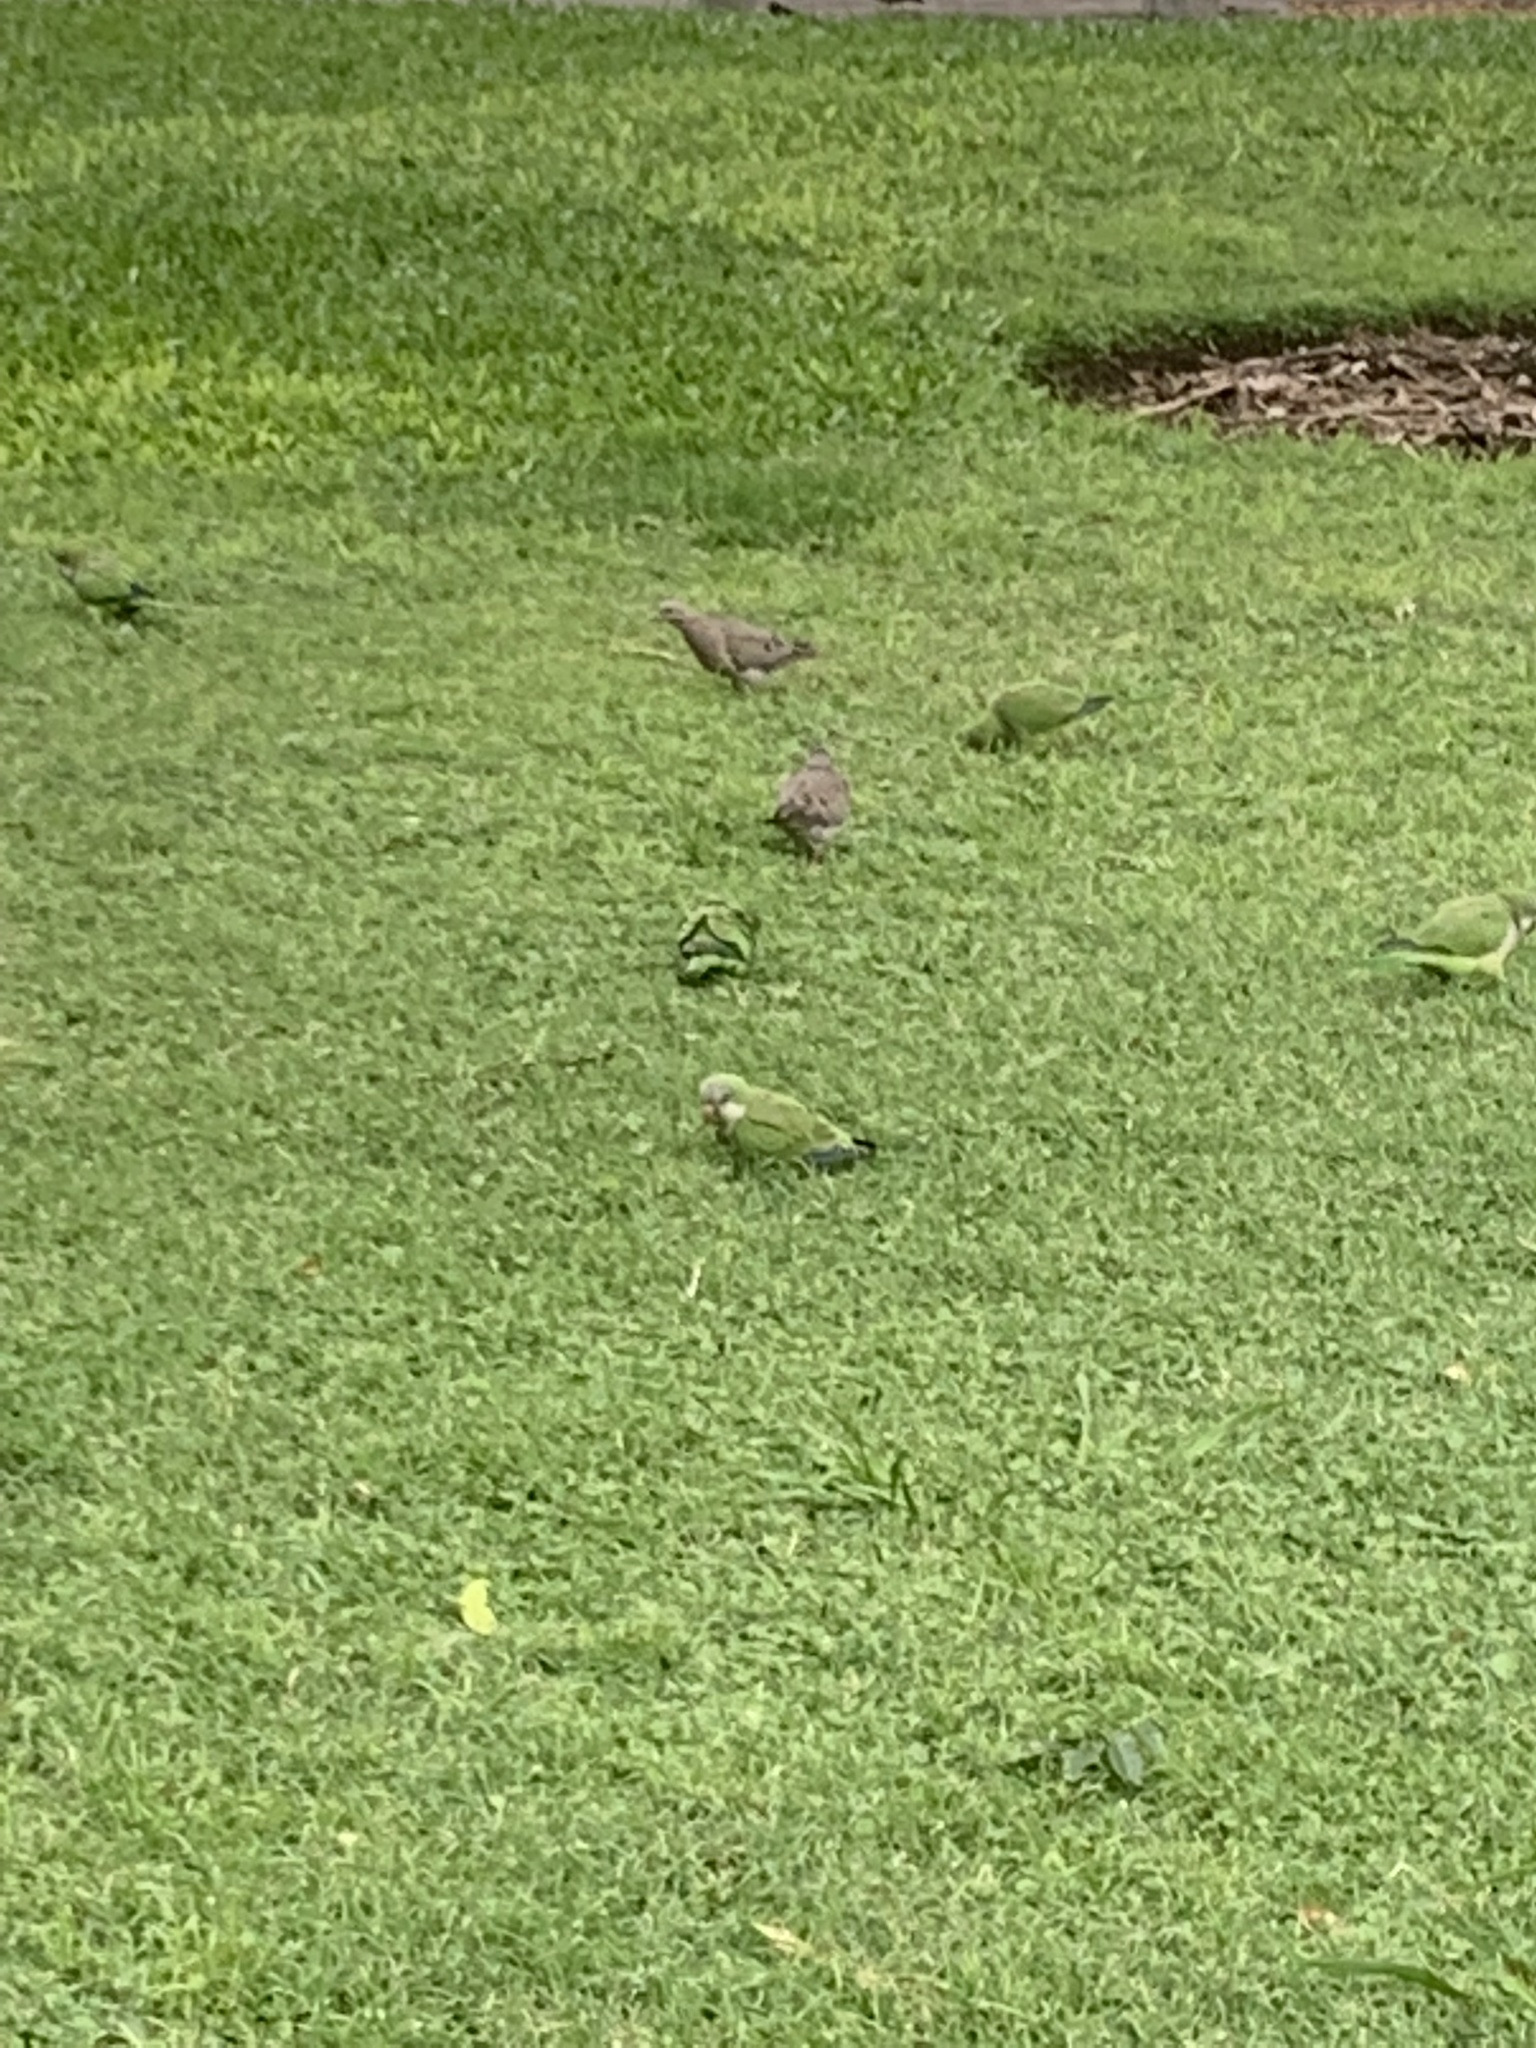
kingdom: Animalia
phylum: Chordata
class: Aves
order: Psittaciformes
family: Psittacidae
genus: Myiopsitta
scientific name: Myiopsitta monachus
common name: Monk parakeet
